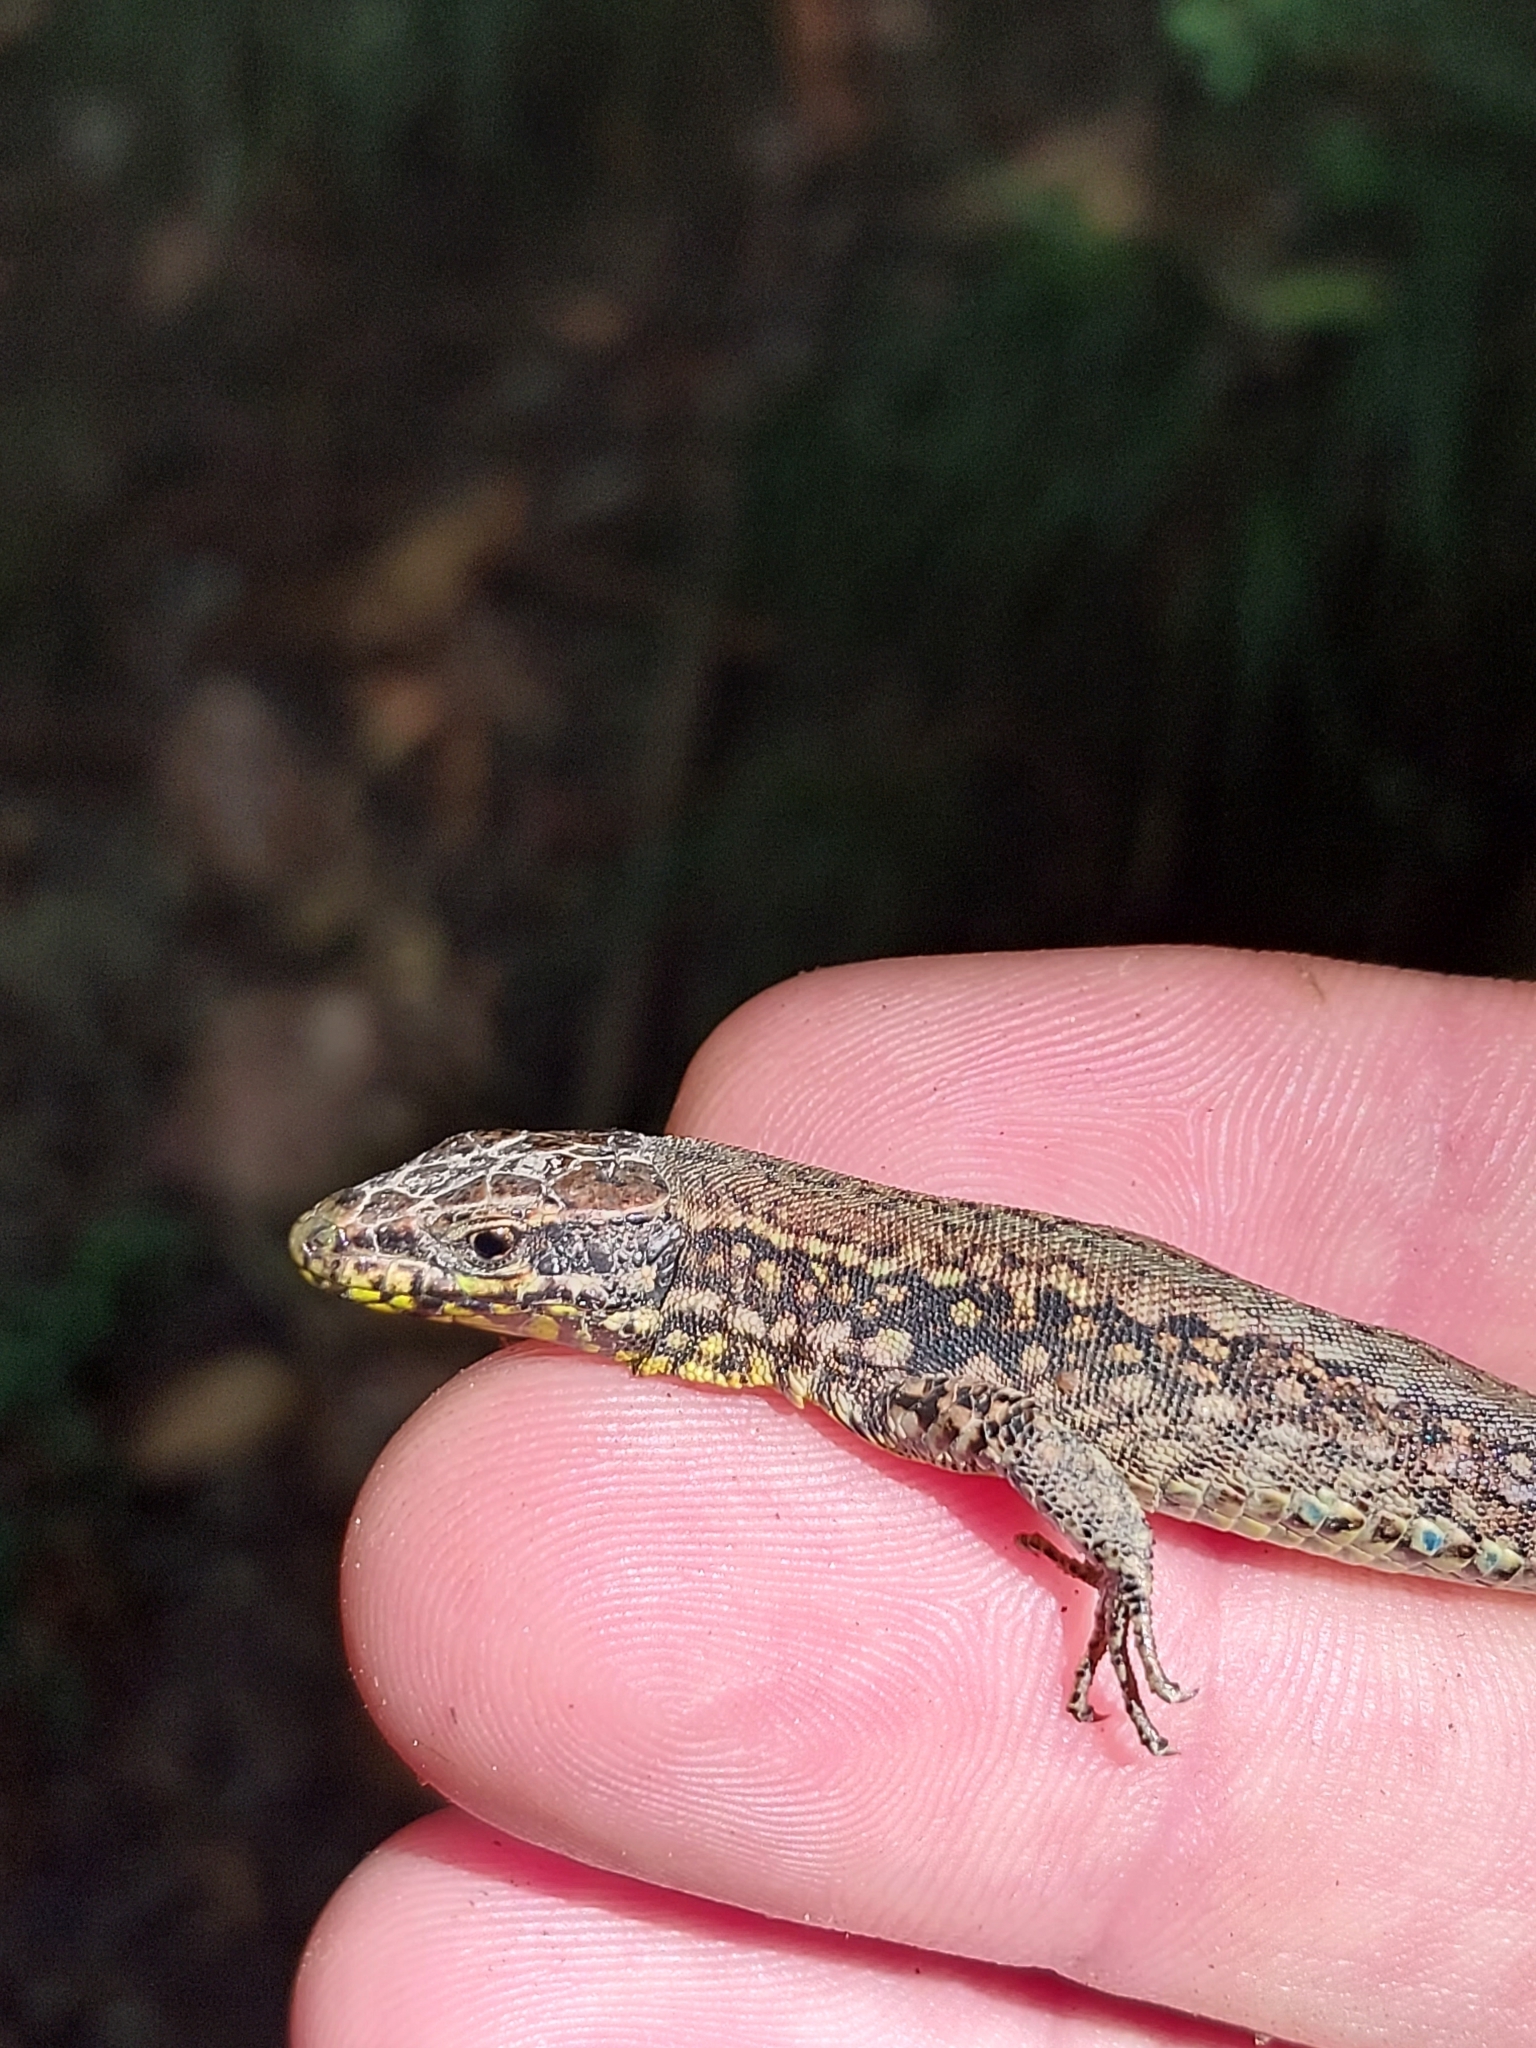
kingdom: Animalia
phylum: Chordata
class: Squamata
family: Lacertidae
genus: Podarcis
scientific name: Podarcis muralis
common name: Common wall lizard
